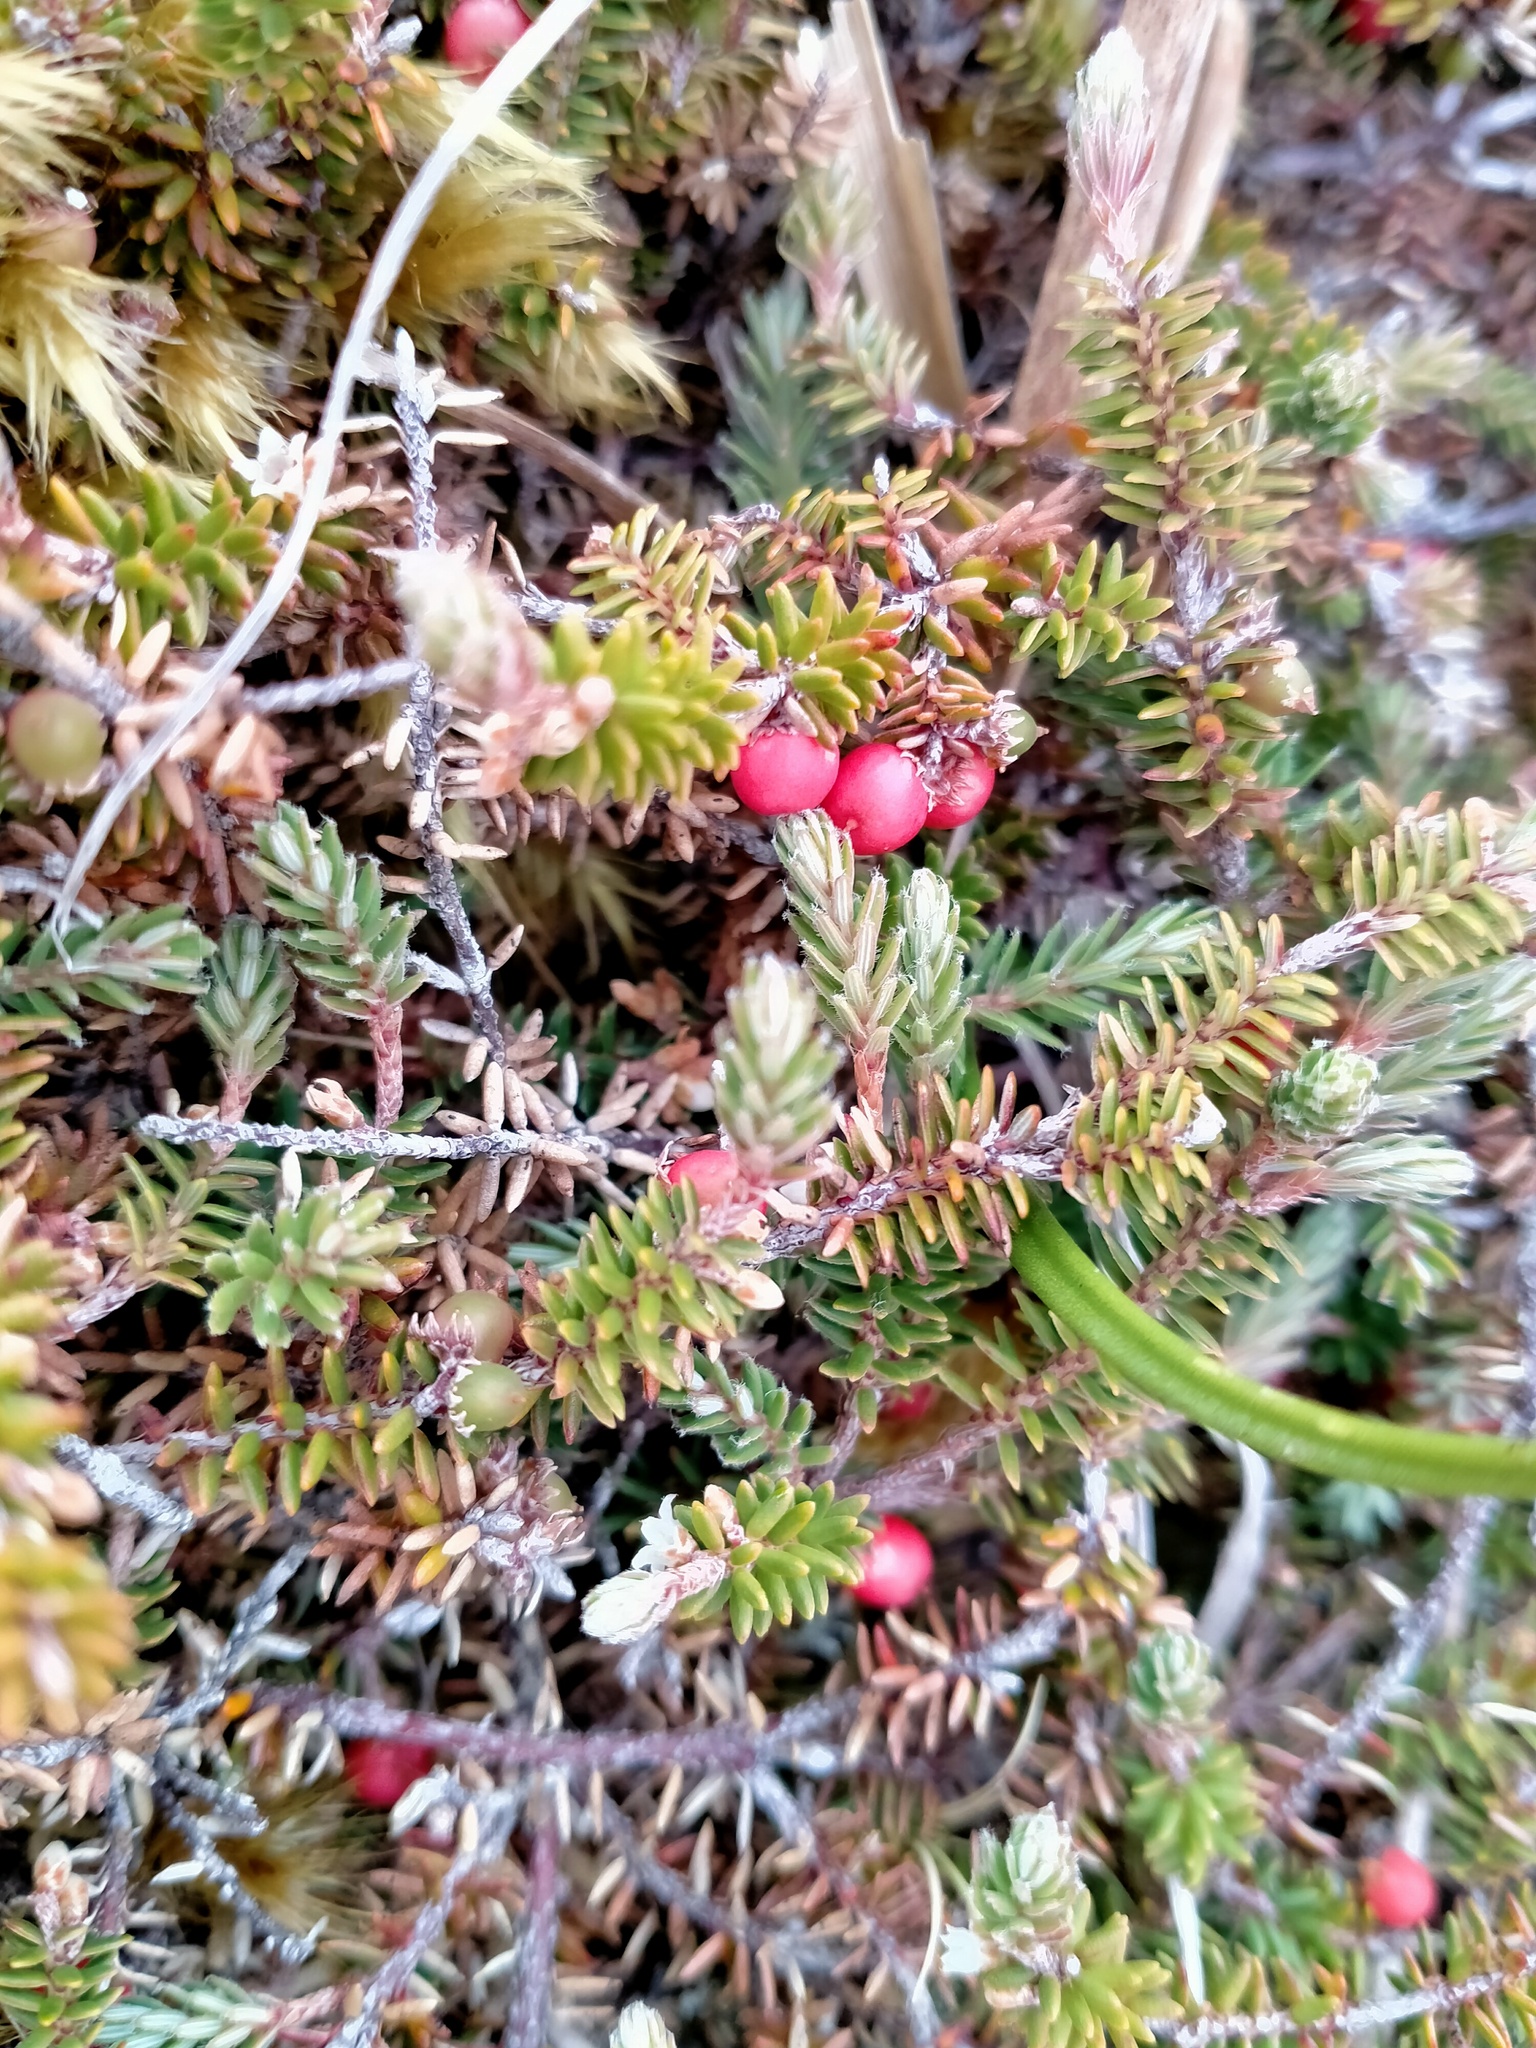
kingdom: Plantae
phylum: Tracheophyta
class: Magnoliopsida
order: Ericales
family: Ericaceae
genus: Androstoma
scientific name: Androstoma empetrifolia
